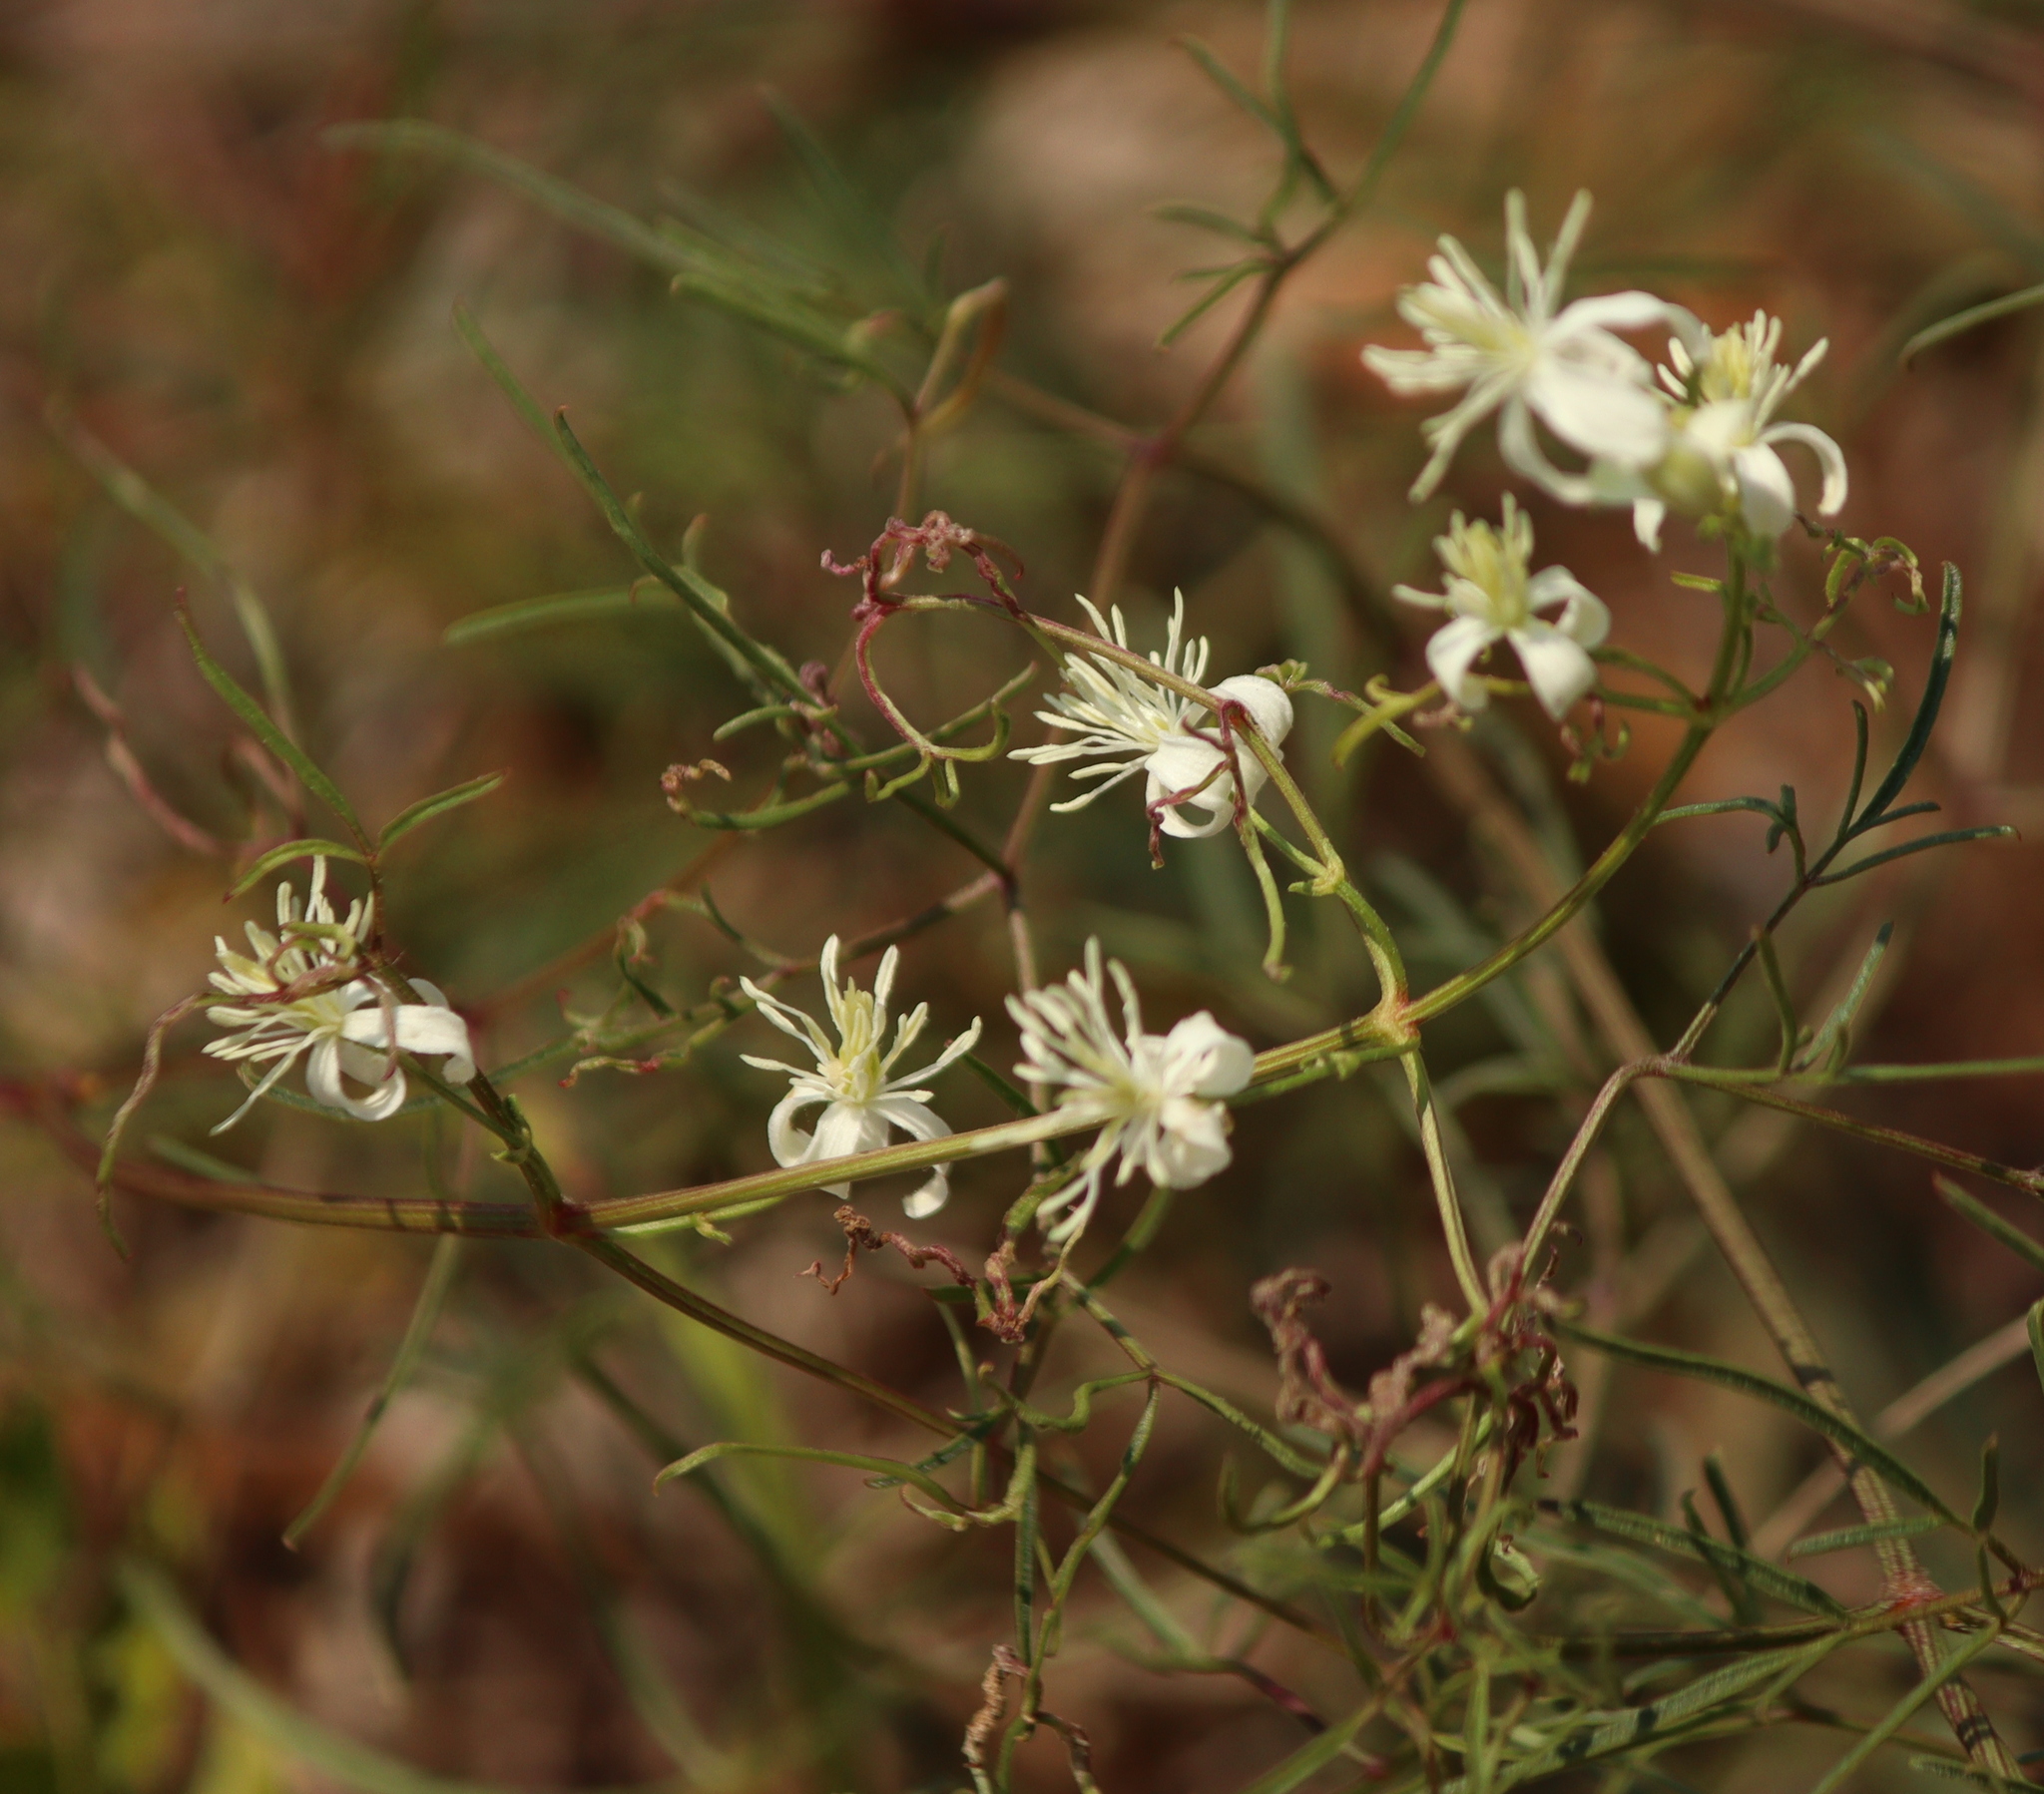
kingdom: Plantae
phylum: Tracheophyta
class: Magnoliopsida
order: Ranunculales
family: Ranunculaceae
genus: Clematis
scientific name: Clematis flammula
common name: Virgin's-bower
